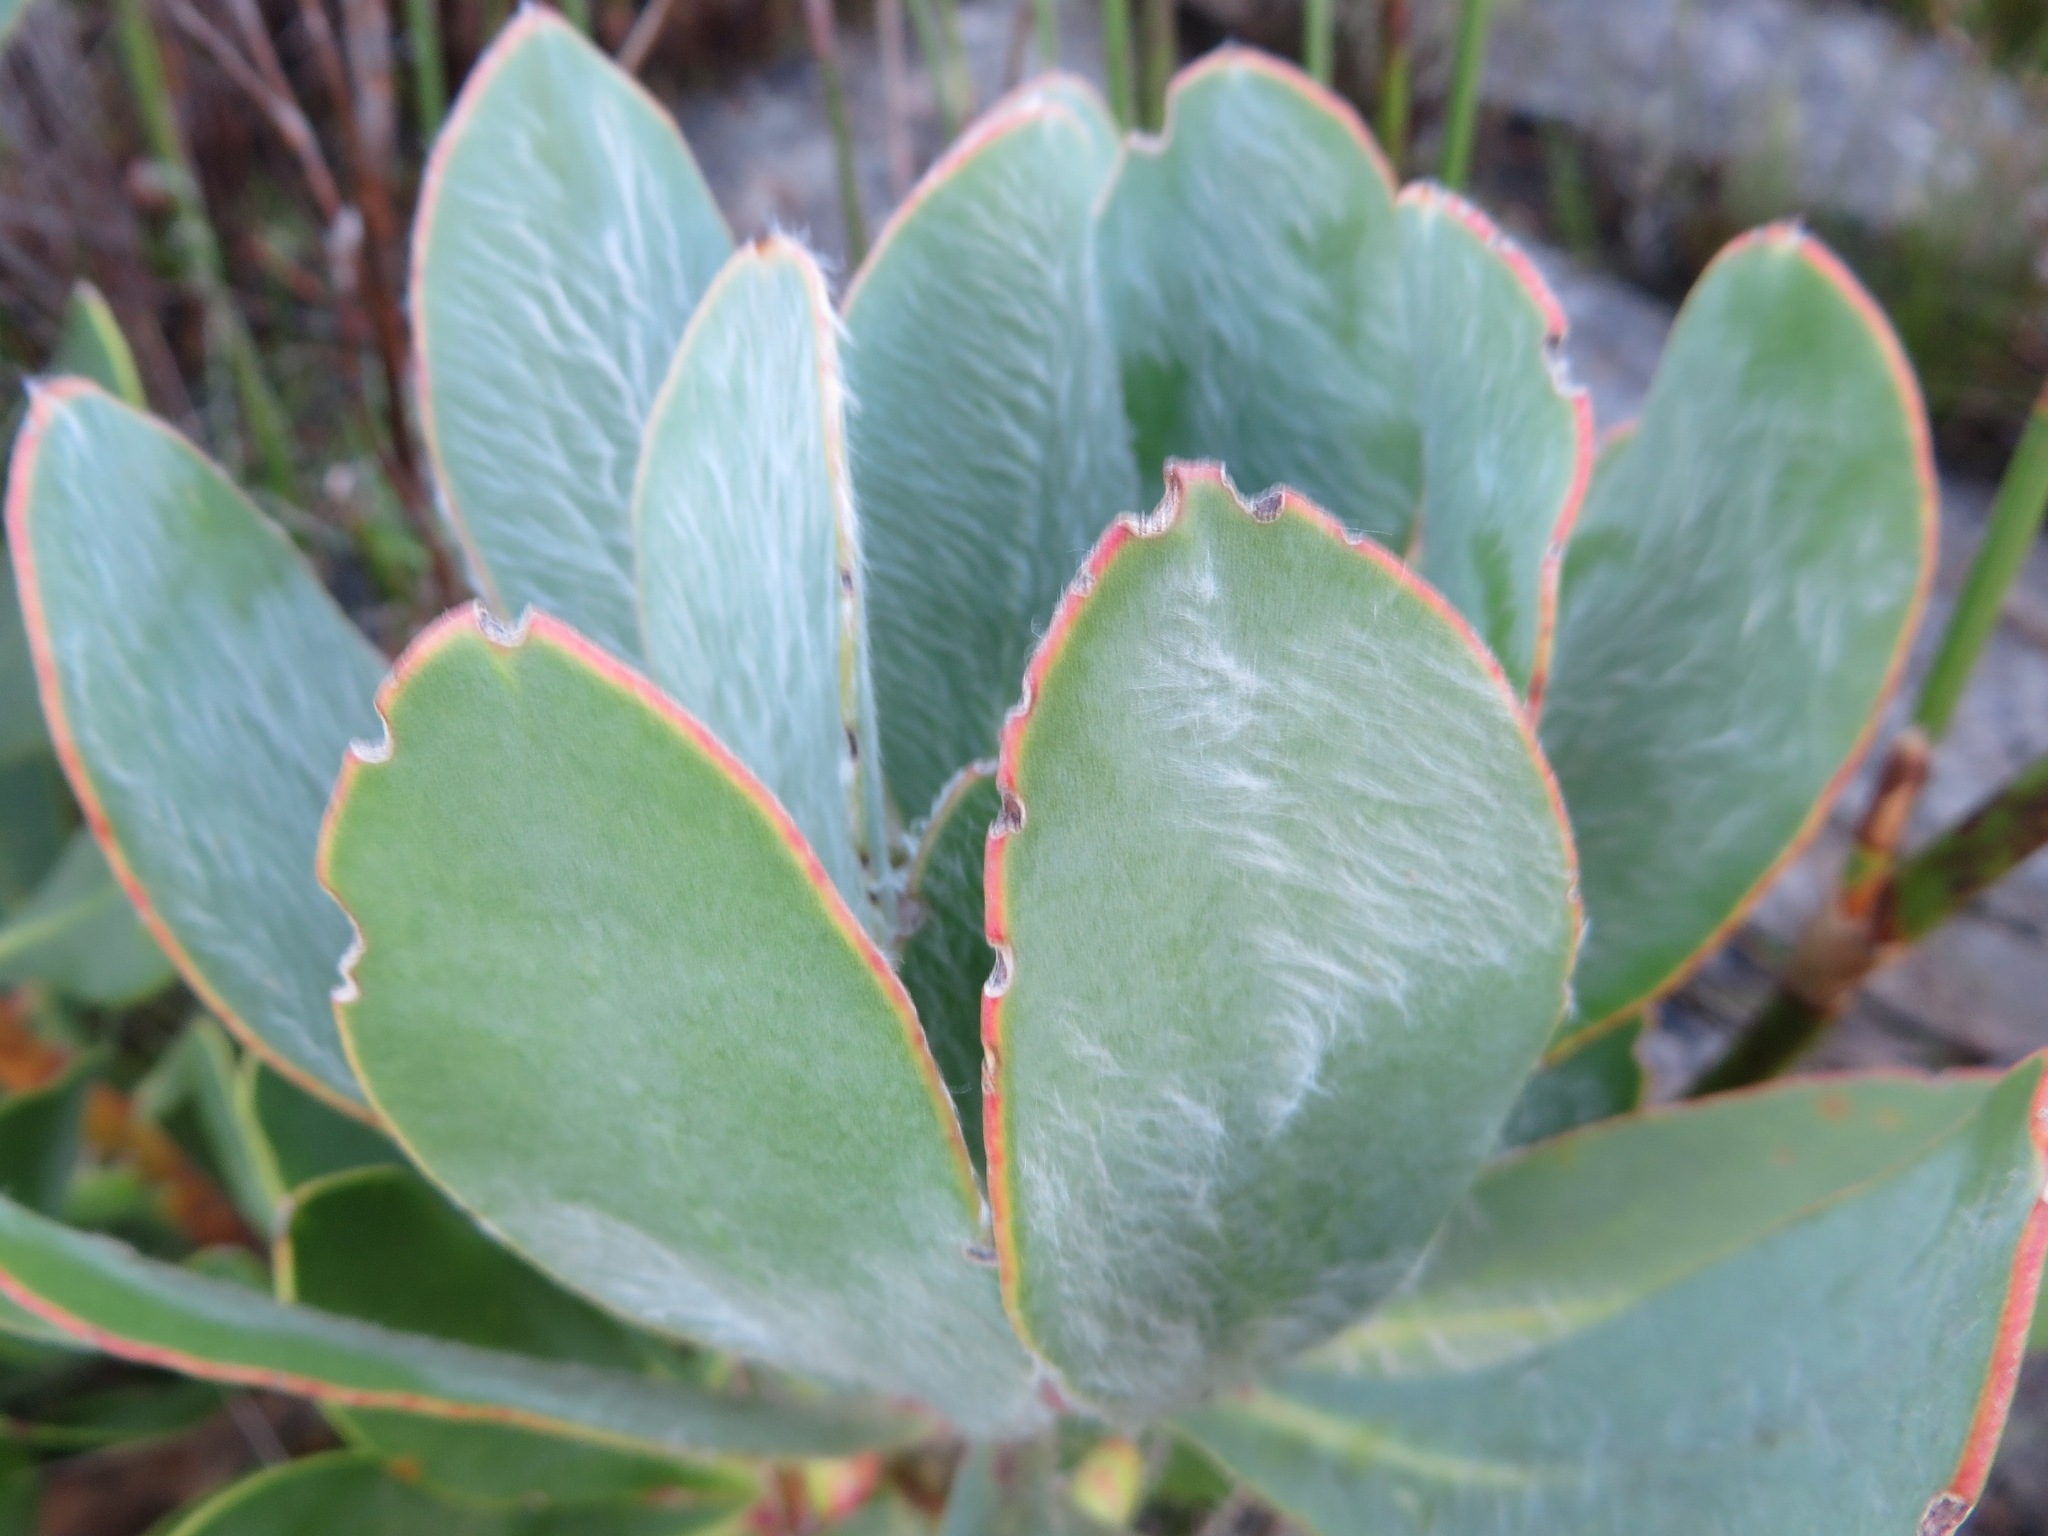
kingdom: Plantae
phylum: Tracheophyta
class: Magnoliopsida
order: Proteales
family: Proteaceae
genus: Protea
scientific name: Protea speciosa
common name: Brown-beard sugarbush
